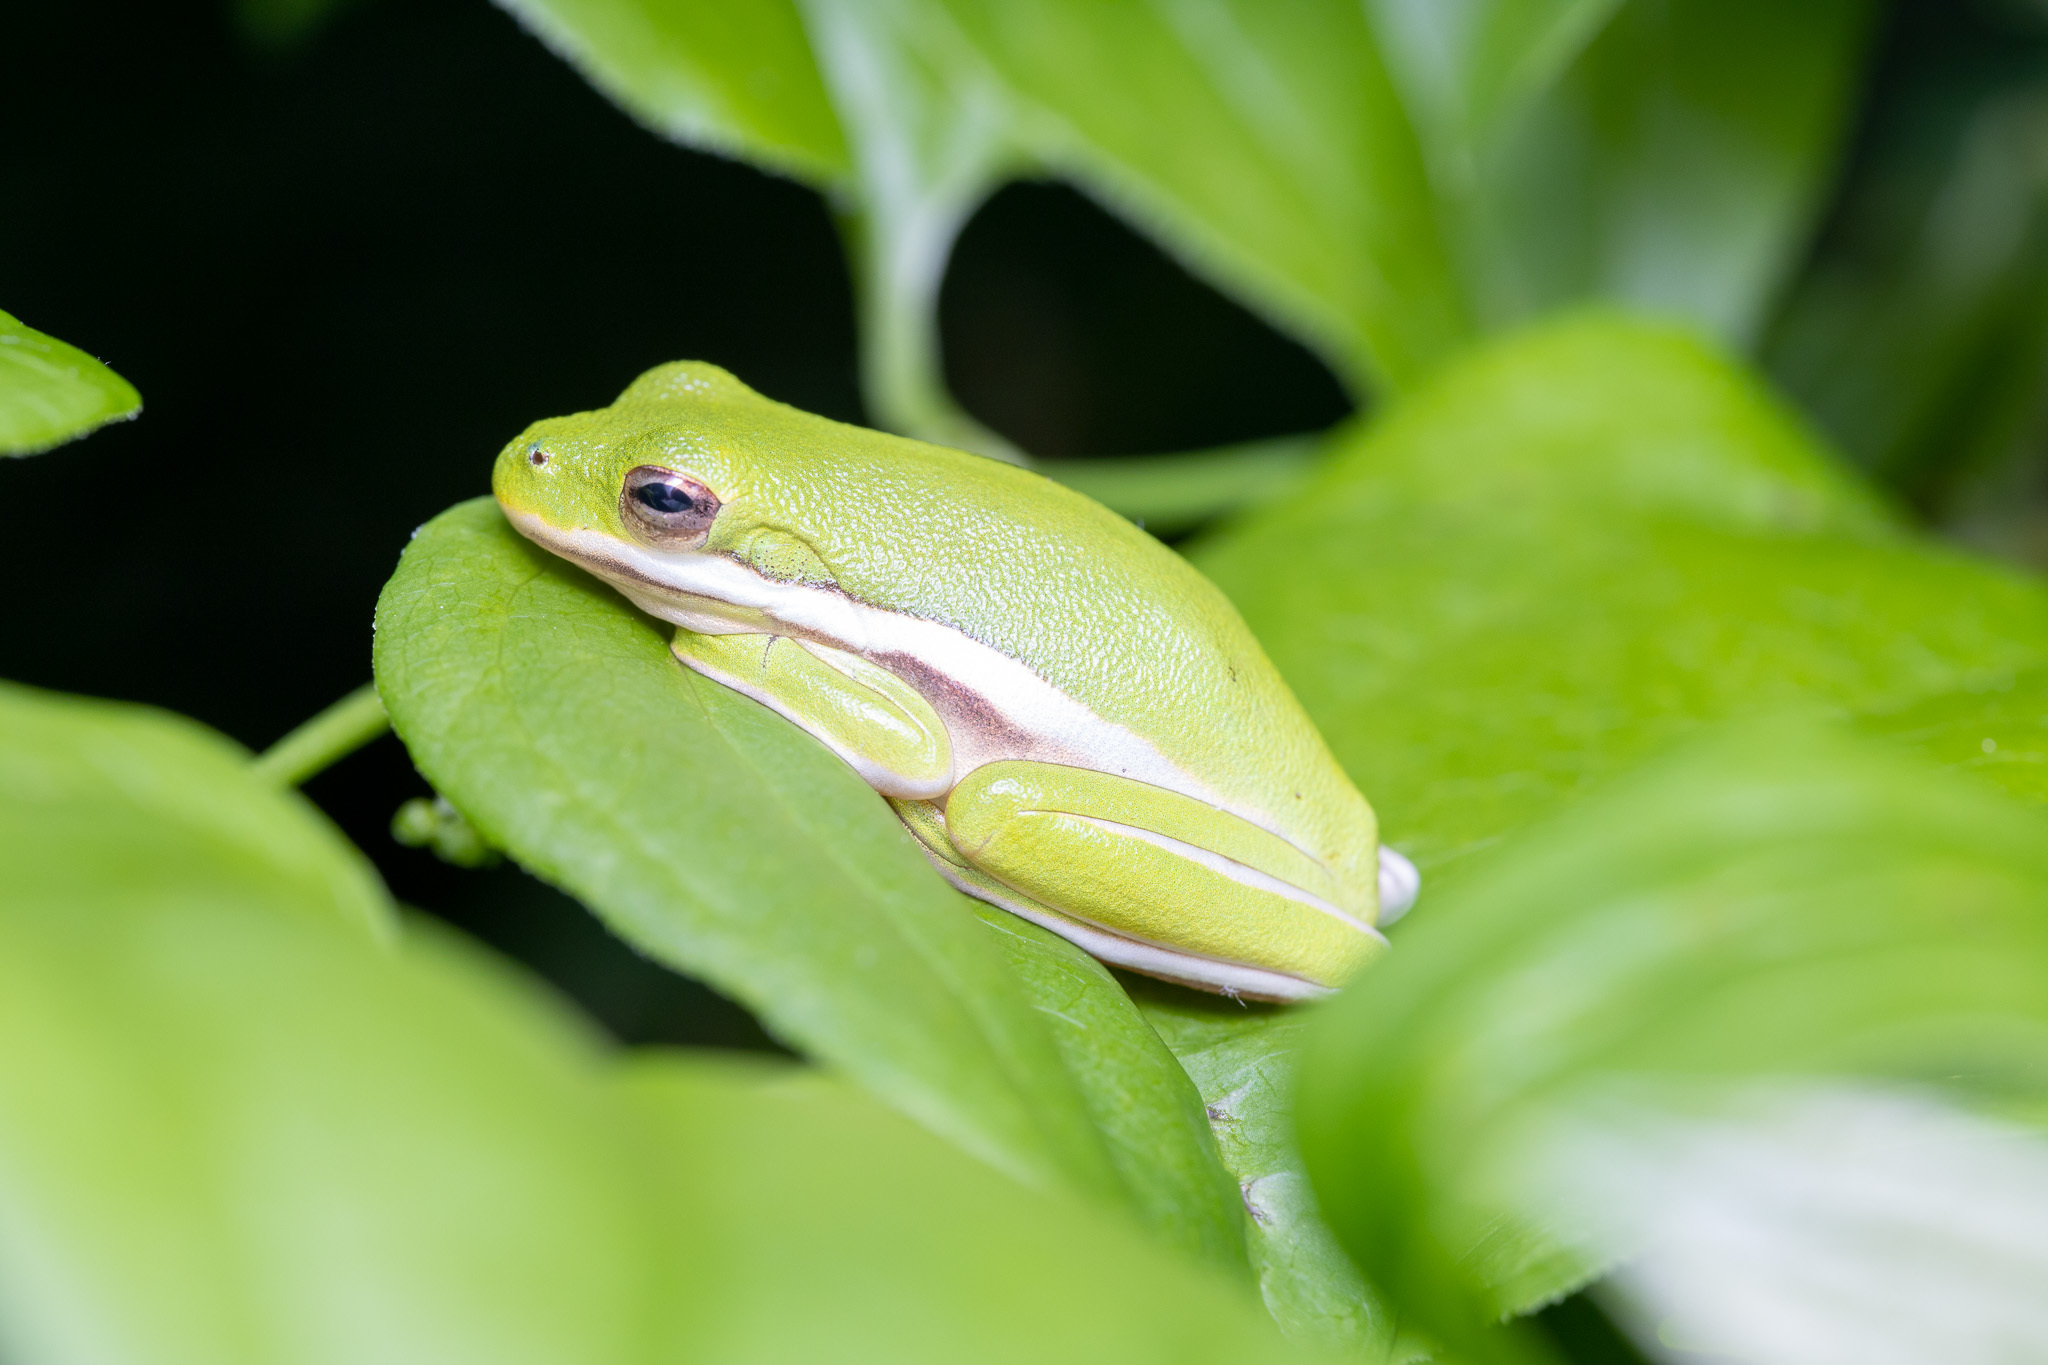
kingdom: Animalia
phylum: Chordata
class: Amphibia
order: Anura
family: Hylidae
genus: Dryophytes
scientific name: Dryophytes cinereus
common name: Green treefrog
